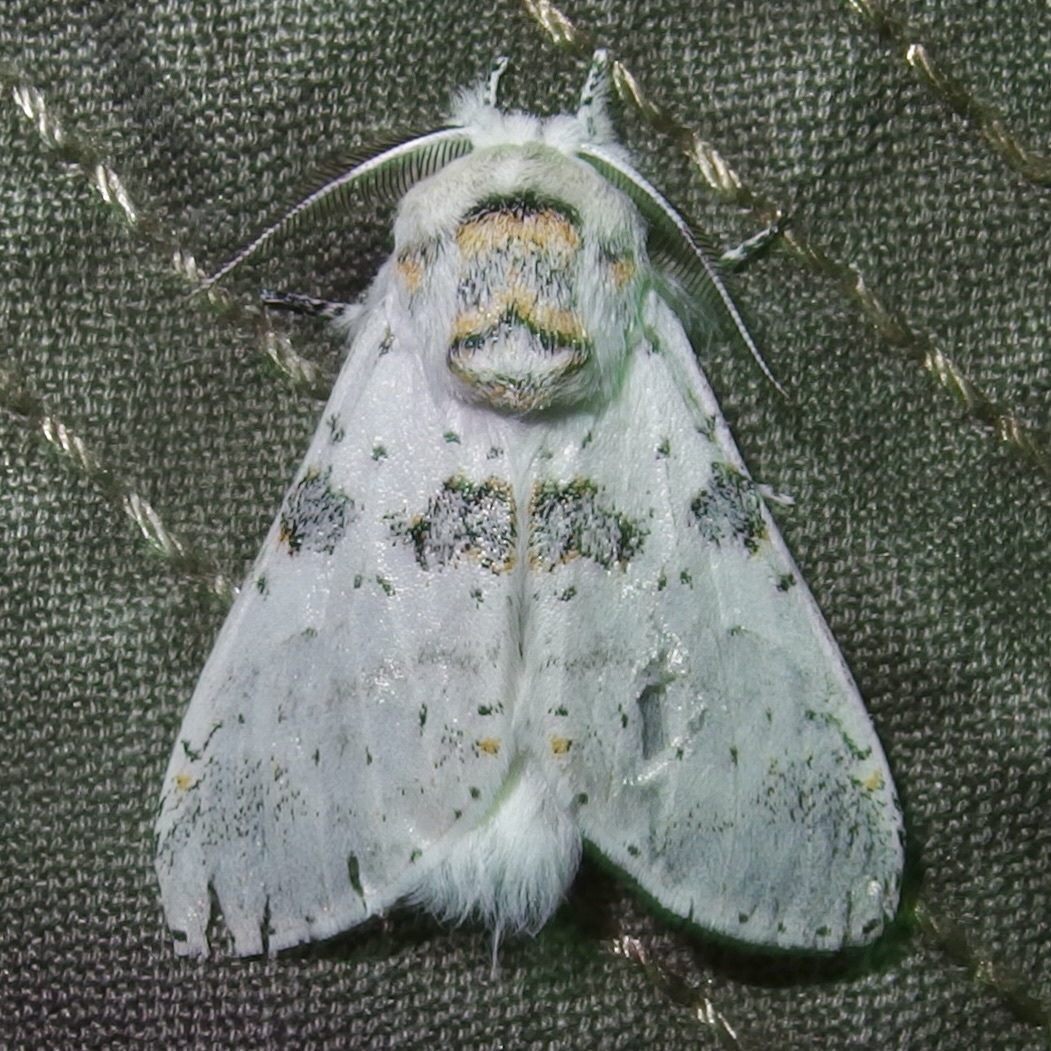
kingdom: Animalia
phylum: Arthropoda
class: Insecta
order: Lepidoptera
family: Notodontidae
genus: Furcula
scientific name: Furcula nivea
